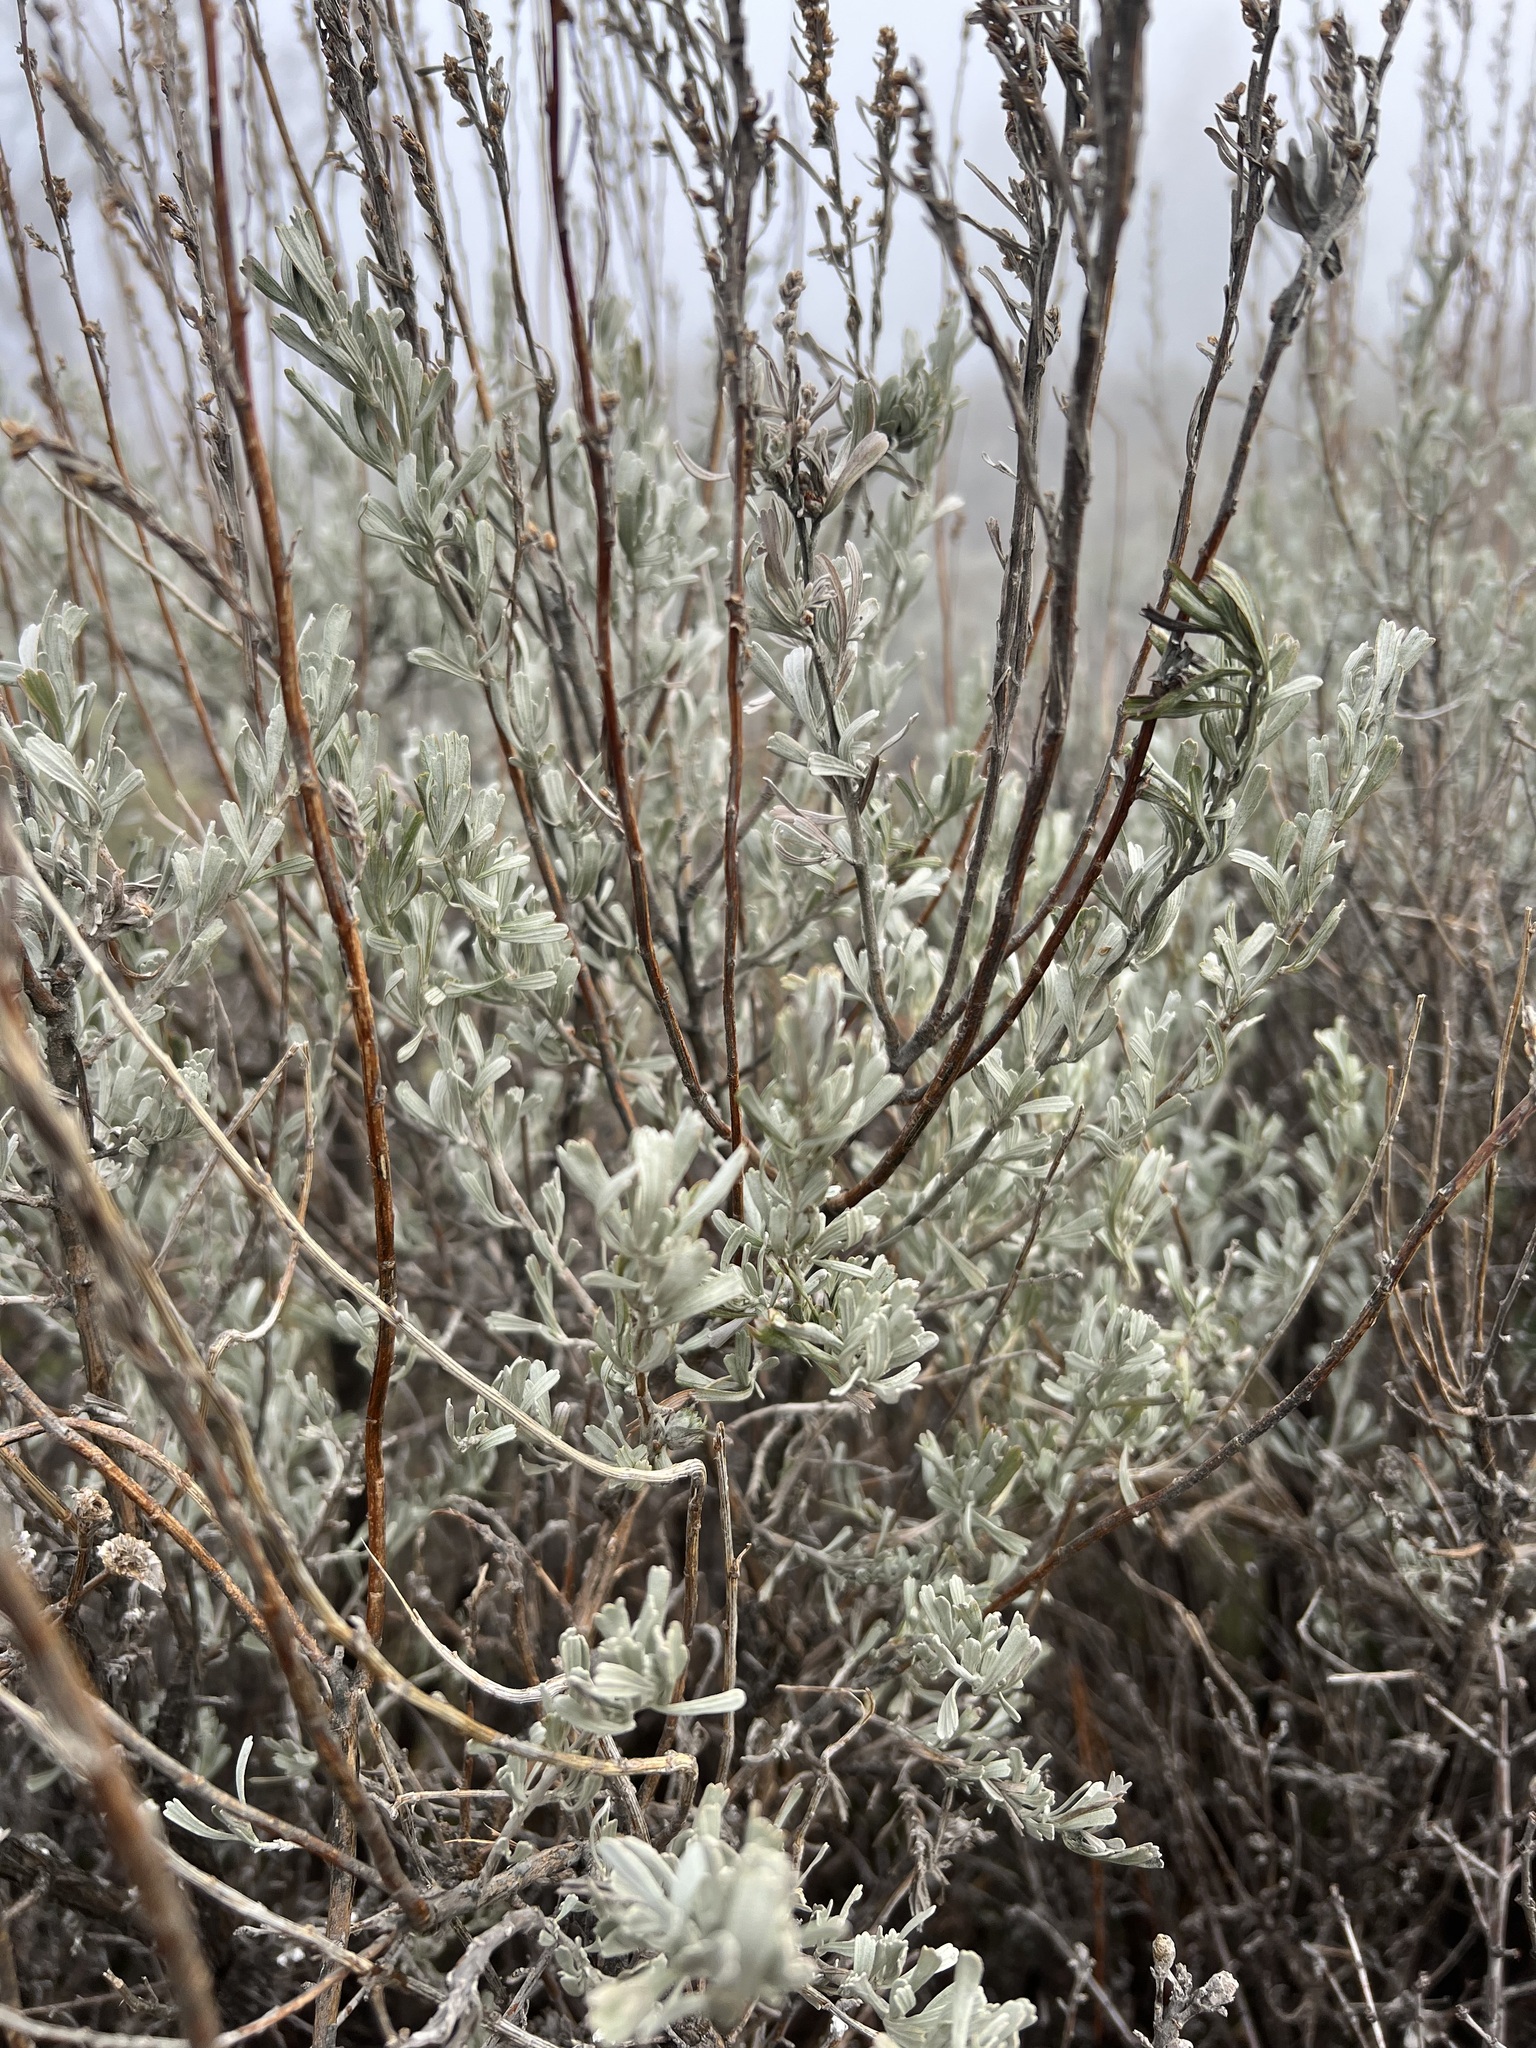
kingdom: Plantae
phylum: Tracheophyta
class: Magnoliopsida
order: Asterales
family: Asteraceae
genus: Artemisia
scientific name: Artemisia tridentata
